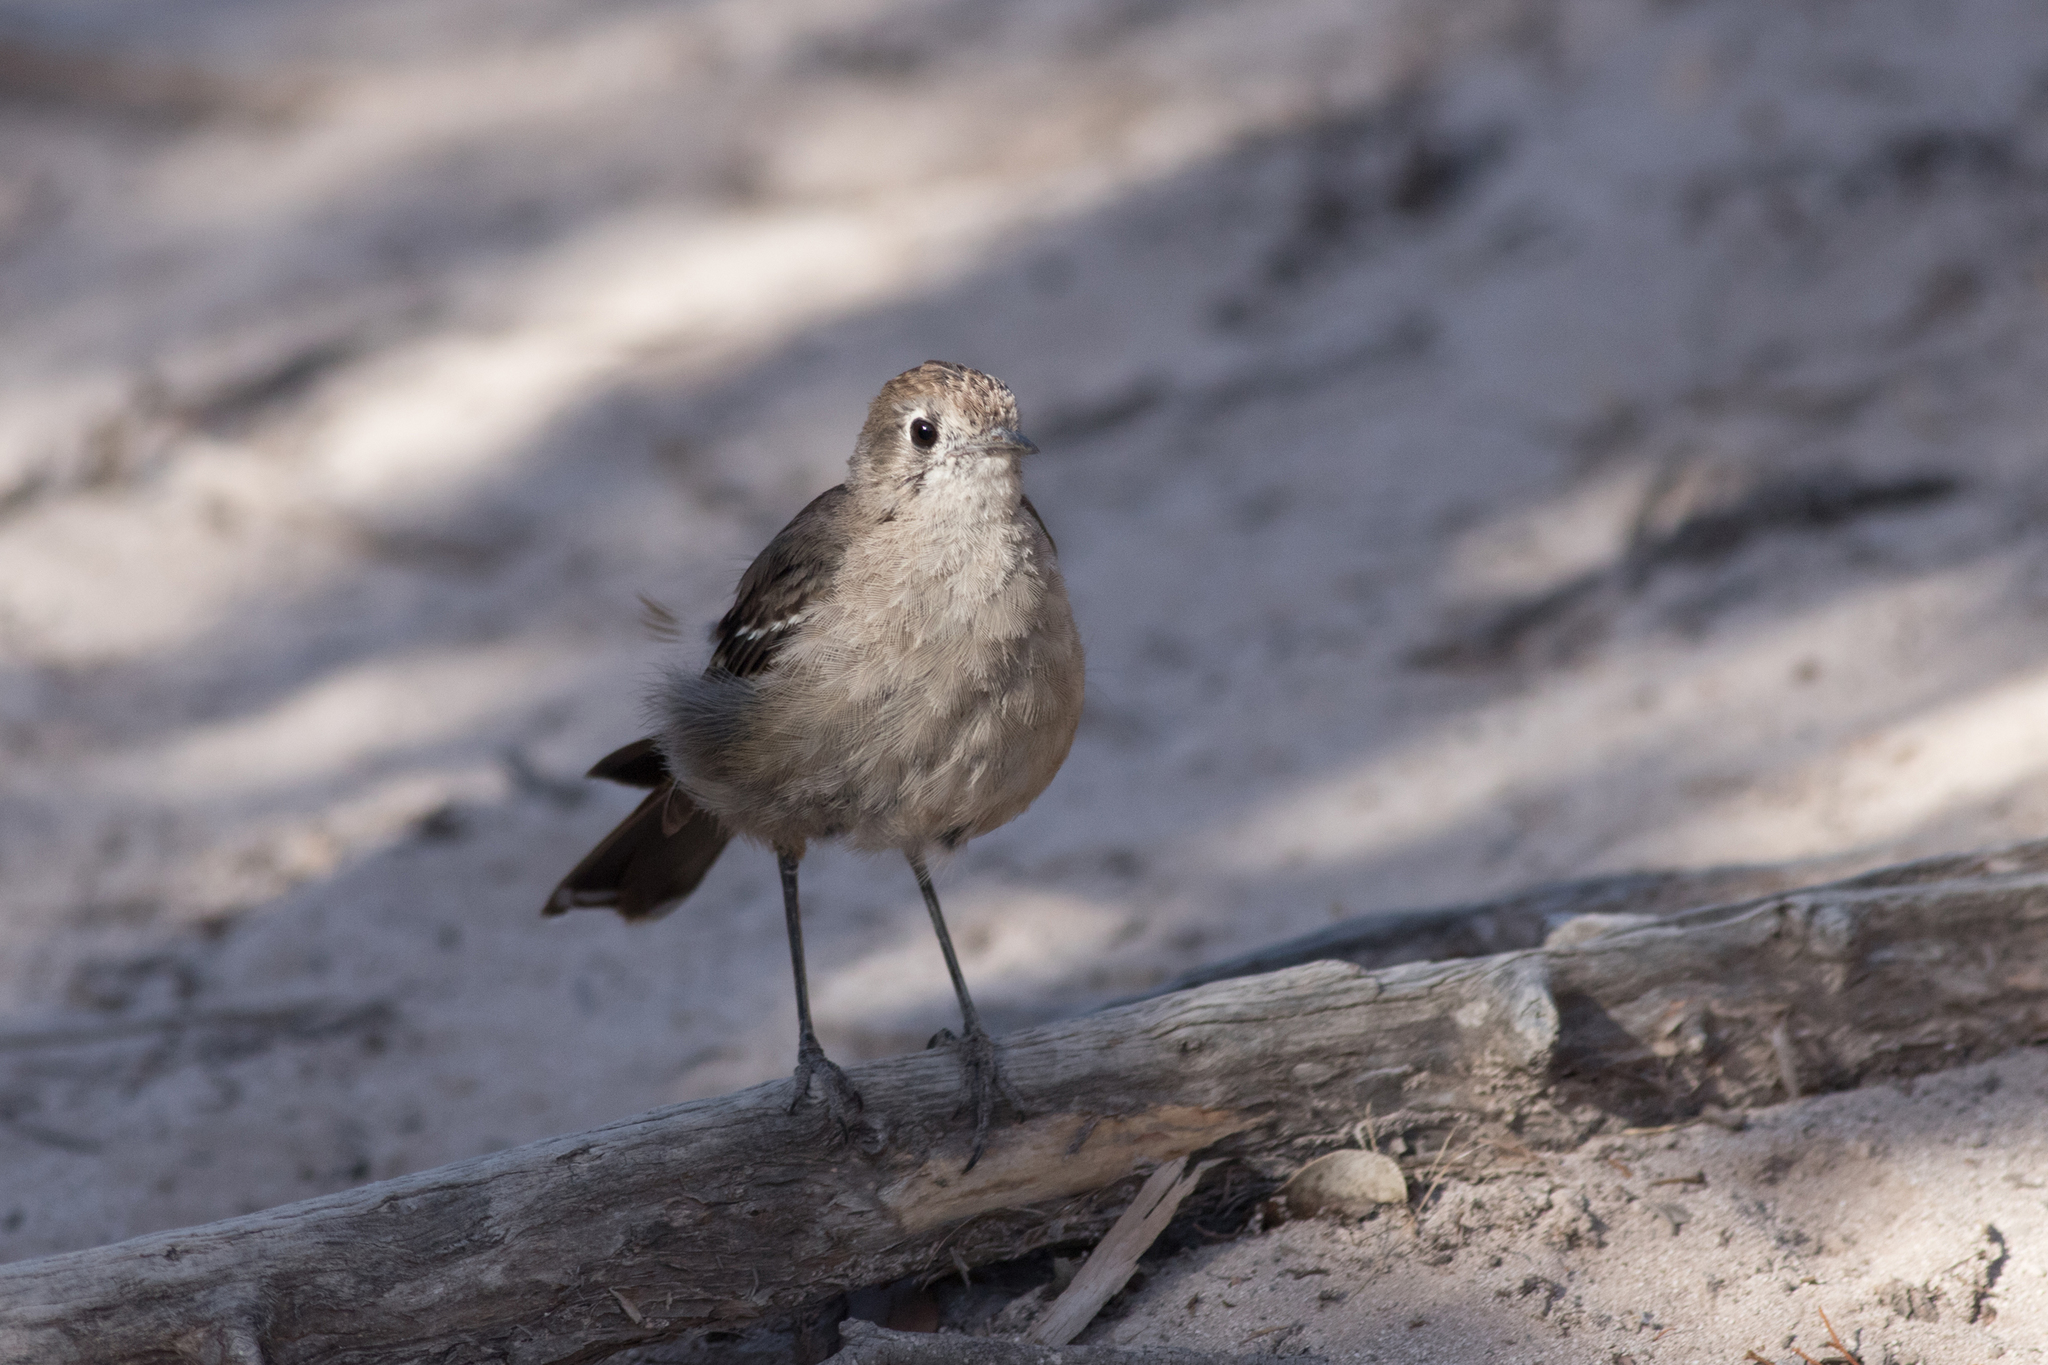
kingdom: Animalia
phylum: Chordata
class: Aves
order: Passeriformes
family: Petroicidae
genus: Drymodes
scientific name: Drymodes brunneopygia
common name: Southern scrub robin
